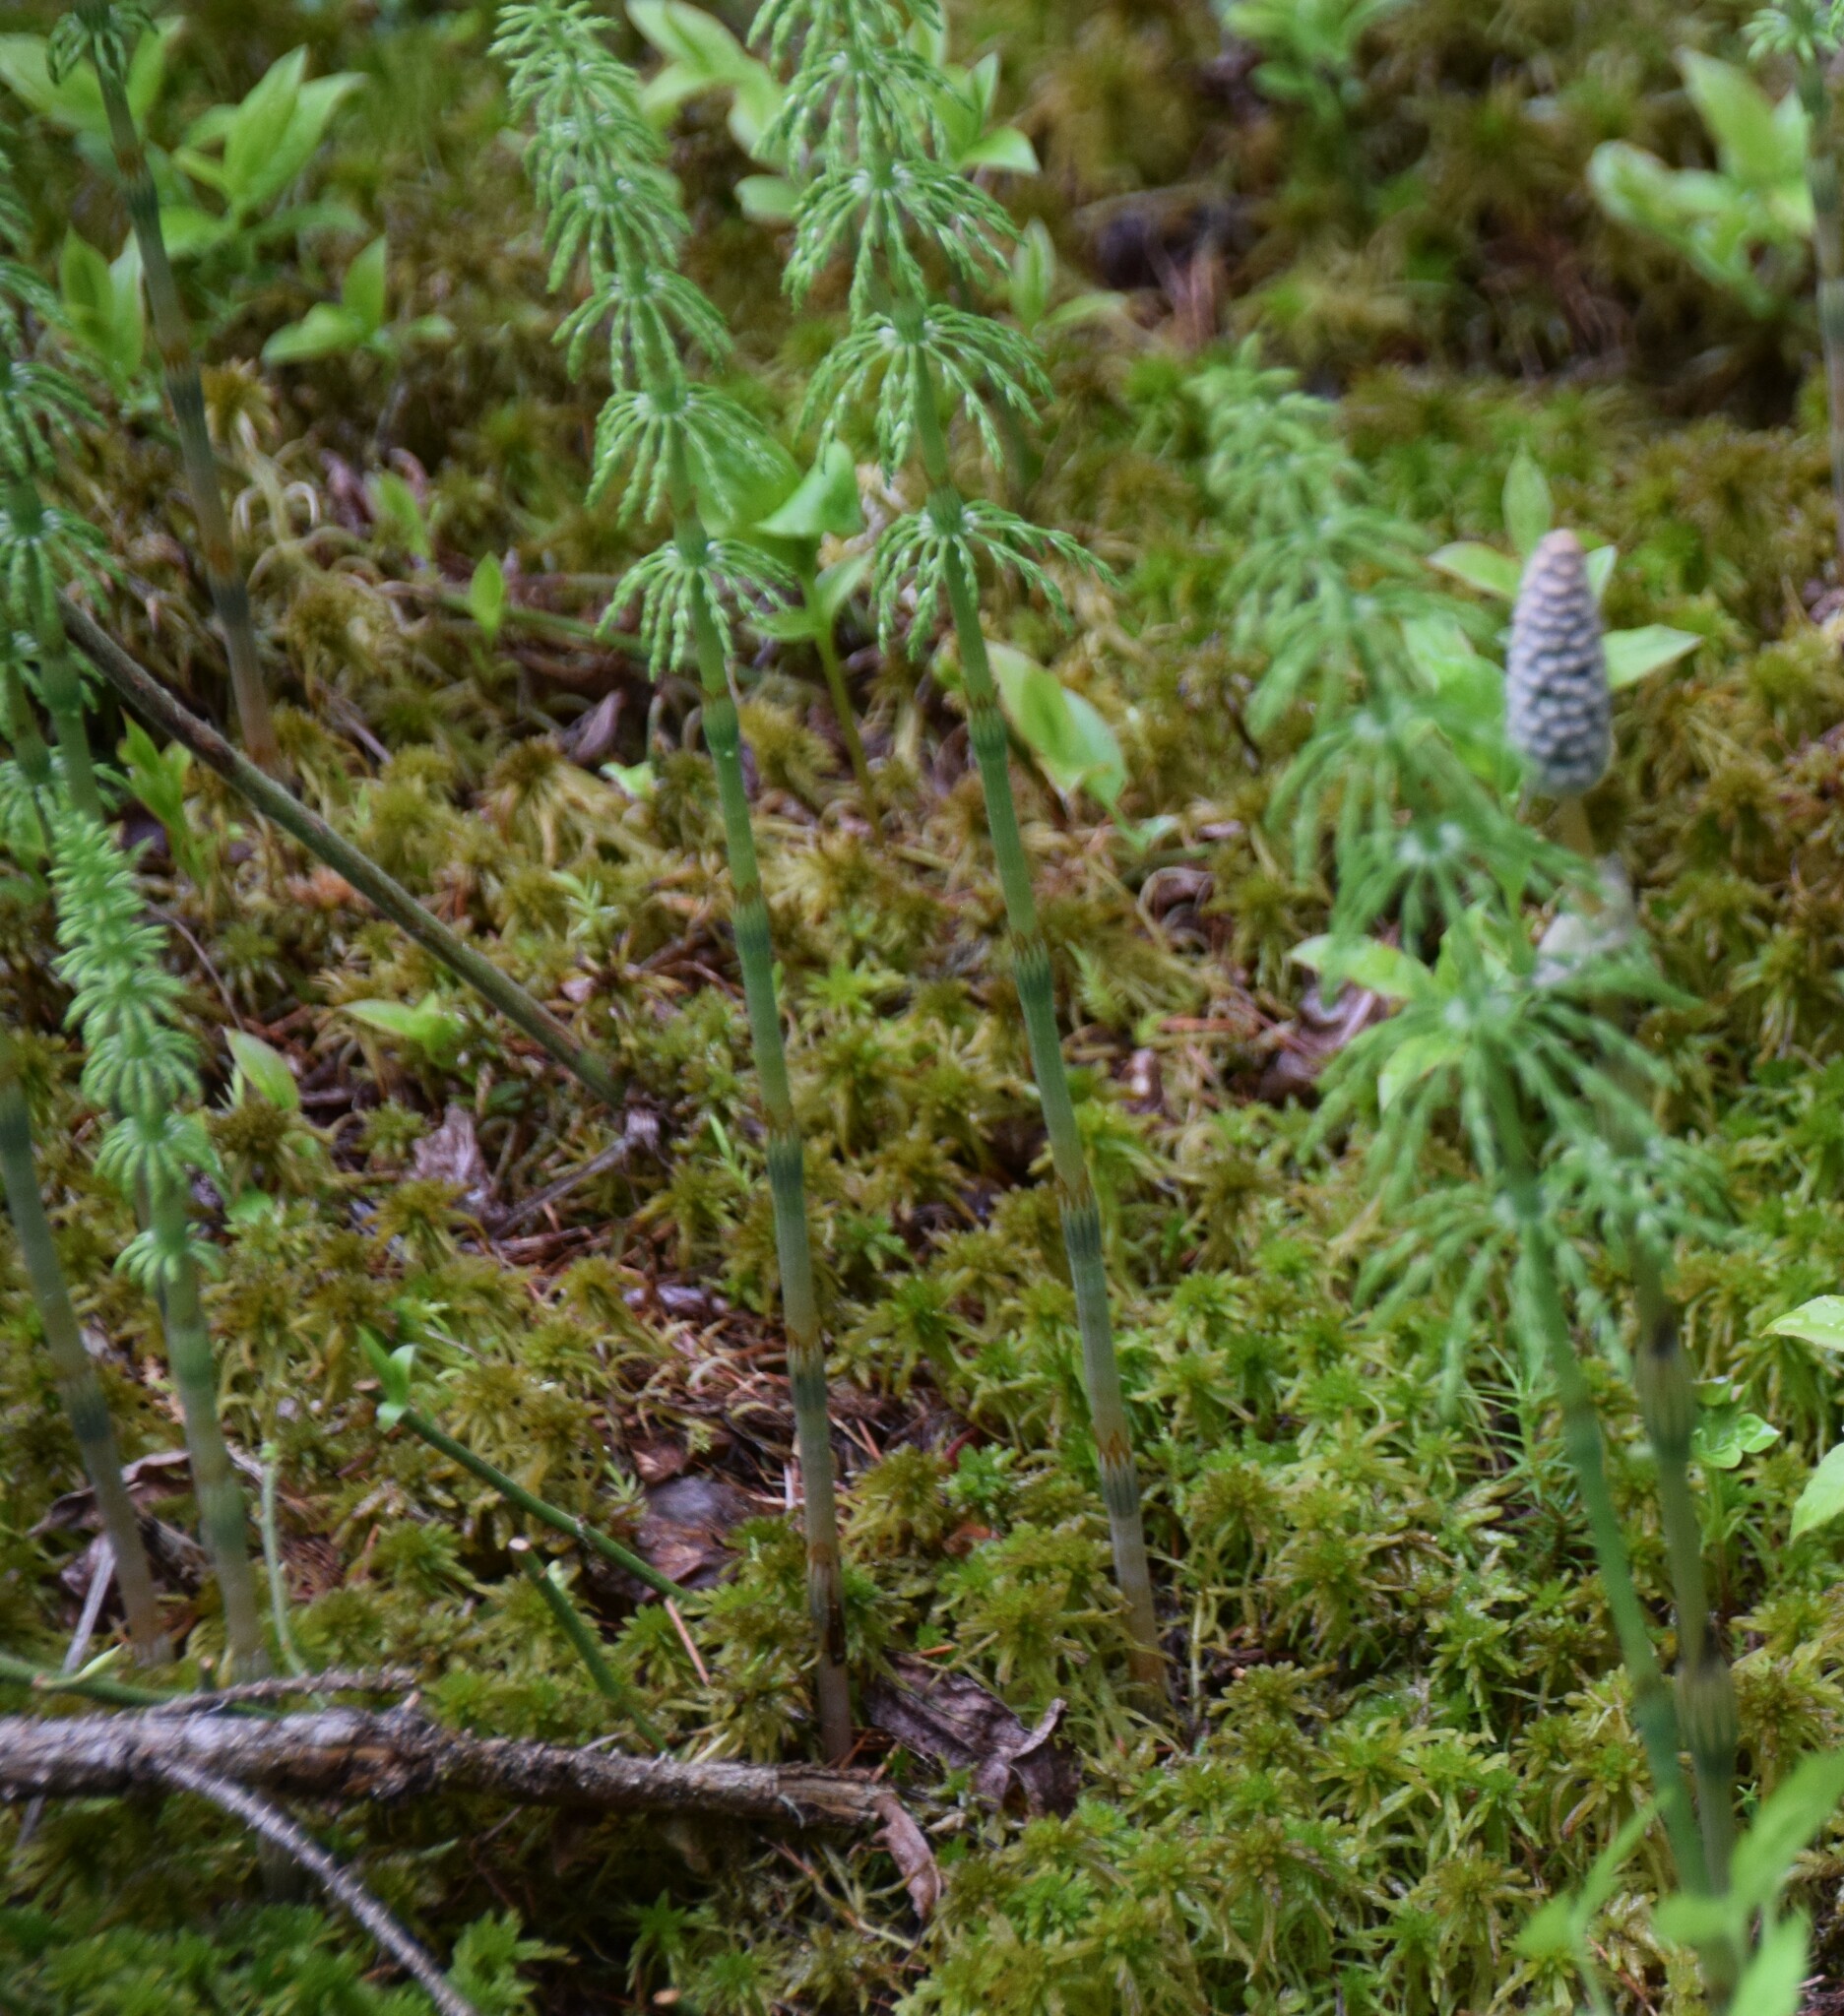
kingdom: Plantae
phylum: Tracheophyta
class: Polypodiopsida
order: Equisetales
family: Equisetaceae
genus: Equisetum
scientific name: Equisetum sylvaticum
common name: Wood horsetail
